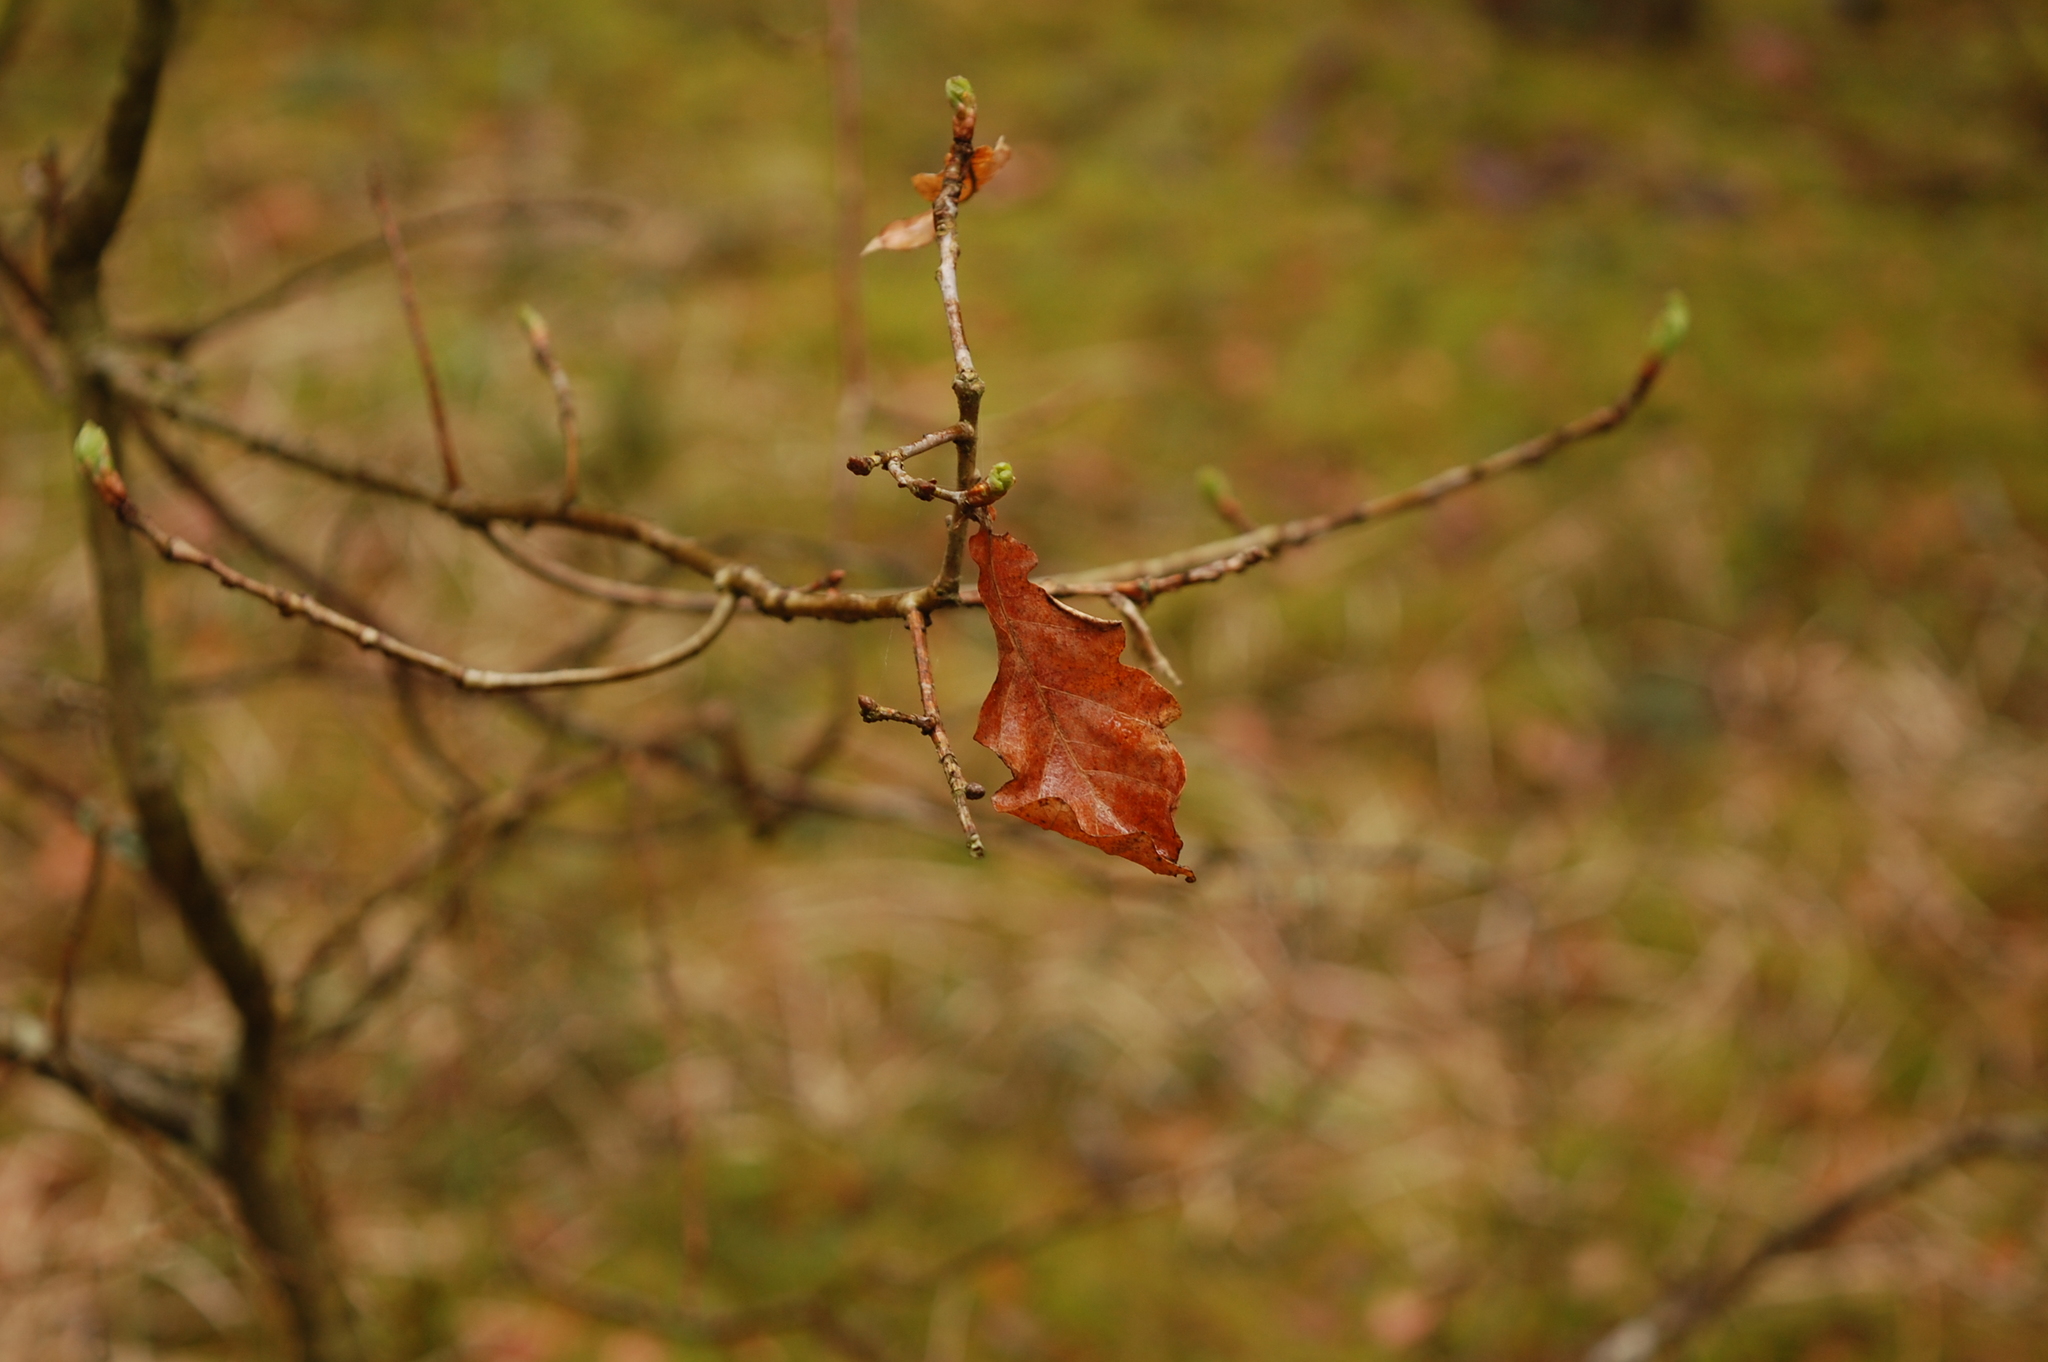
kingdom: Plantae
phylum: Tracheophyta
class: Magnoliopsida
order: Fagales
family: Fagaceae
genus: Quercus
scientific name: Quercus robur
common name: Pedunculate oak
